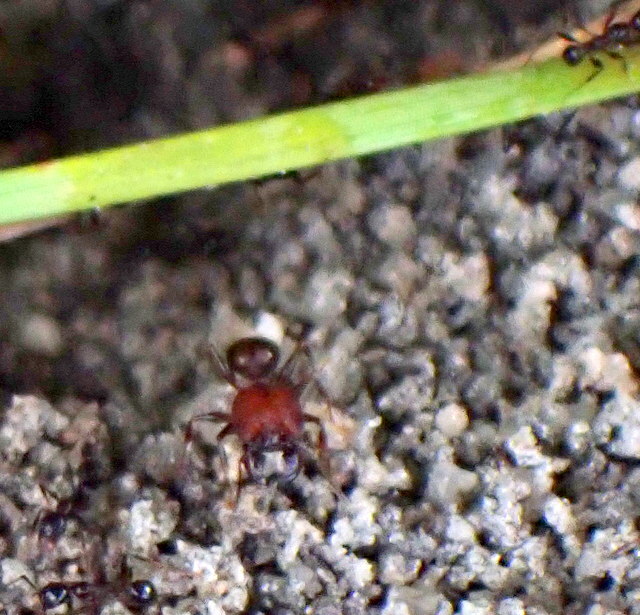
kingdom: Animalia
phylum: Arthropoda
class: Insecta
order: Hymenoptera
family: Formicidae
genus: Pheidole
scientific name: Pheidole obscurithorax
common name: Obscure big-headed ant
